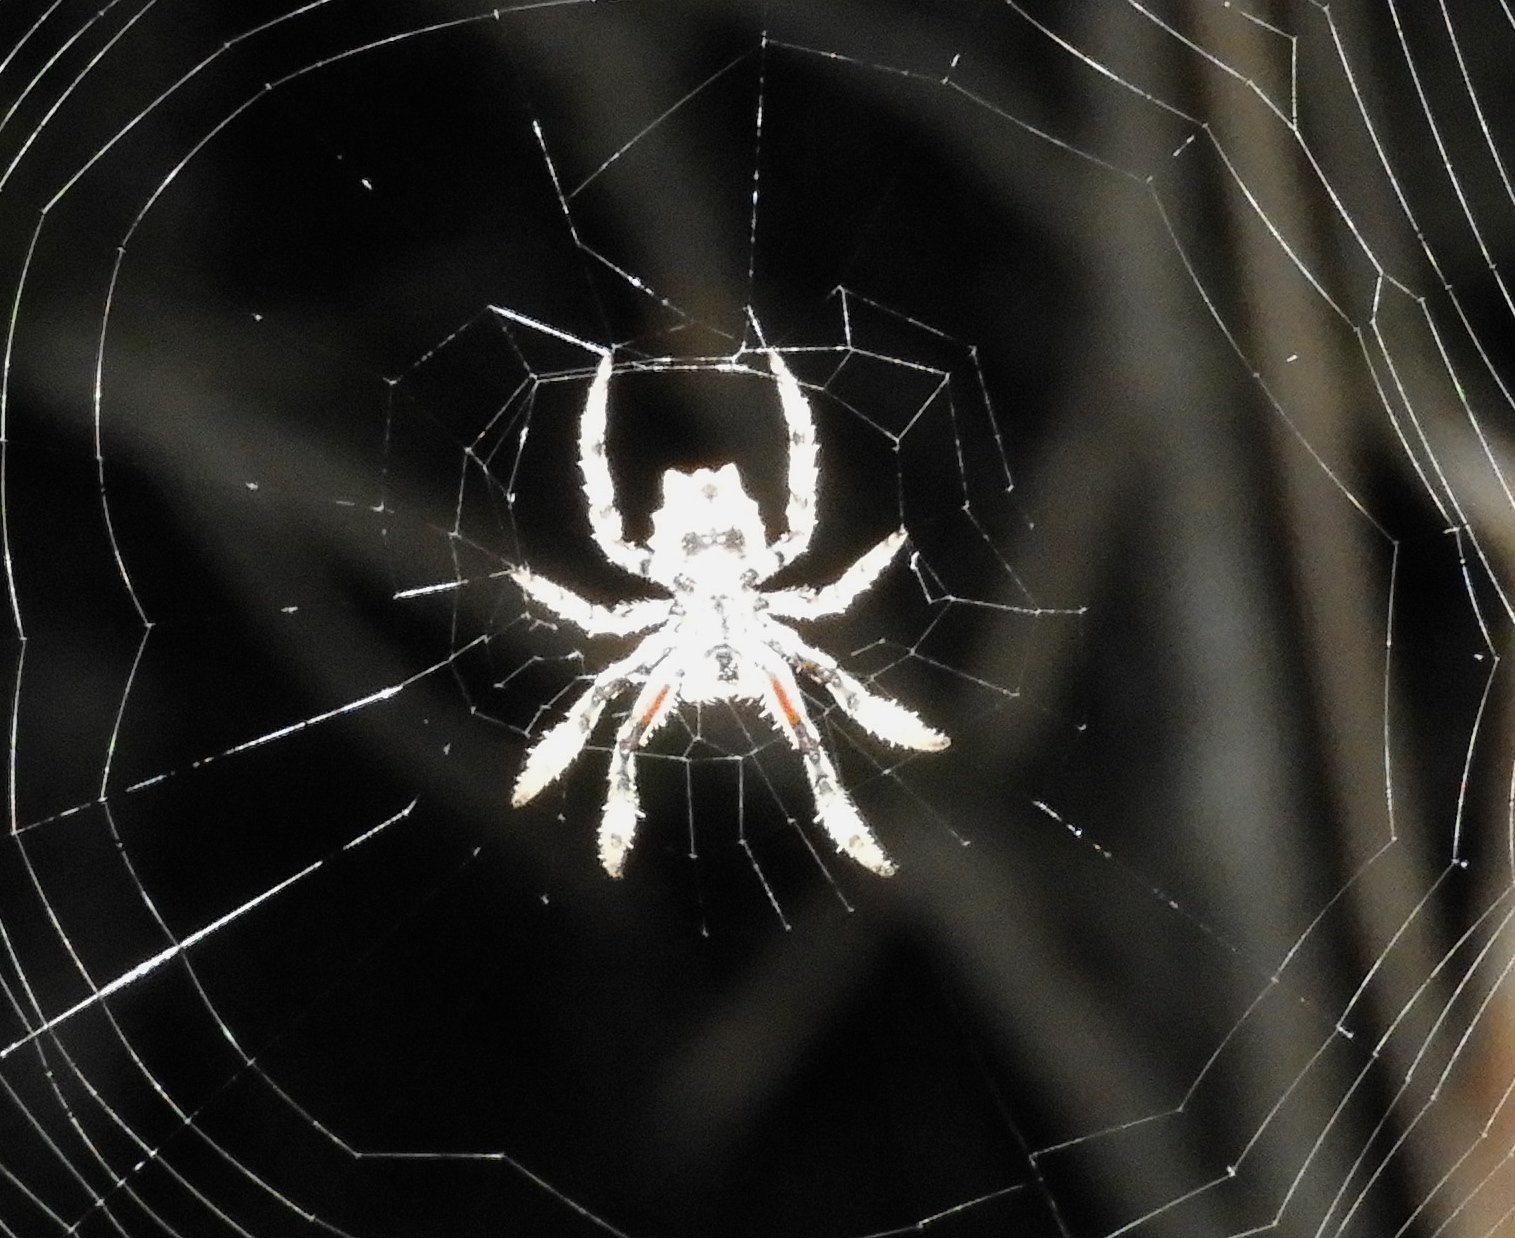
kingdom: Animalia
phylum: Arthropoda
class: Arachnida
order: Araneae
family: Araneidae
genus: Parawixia
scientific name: Parawixia
